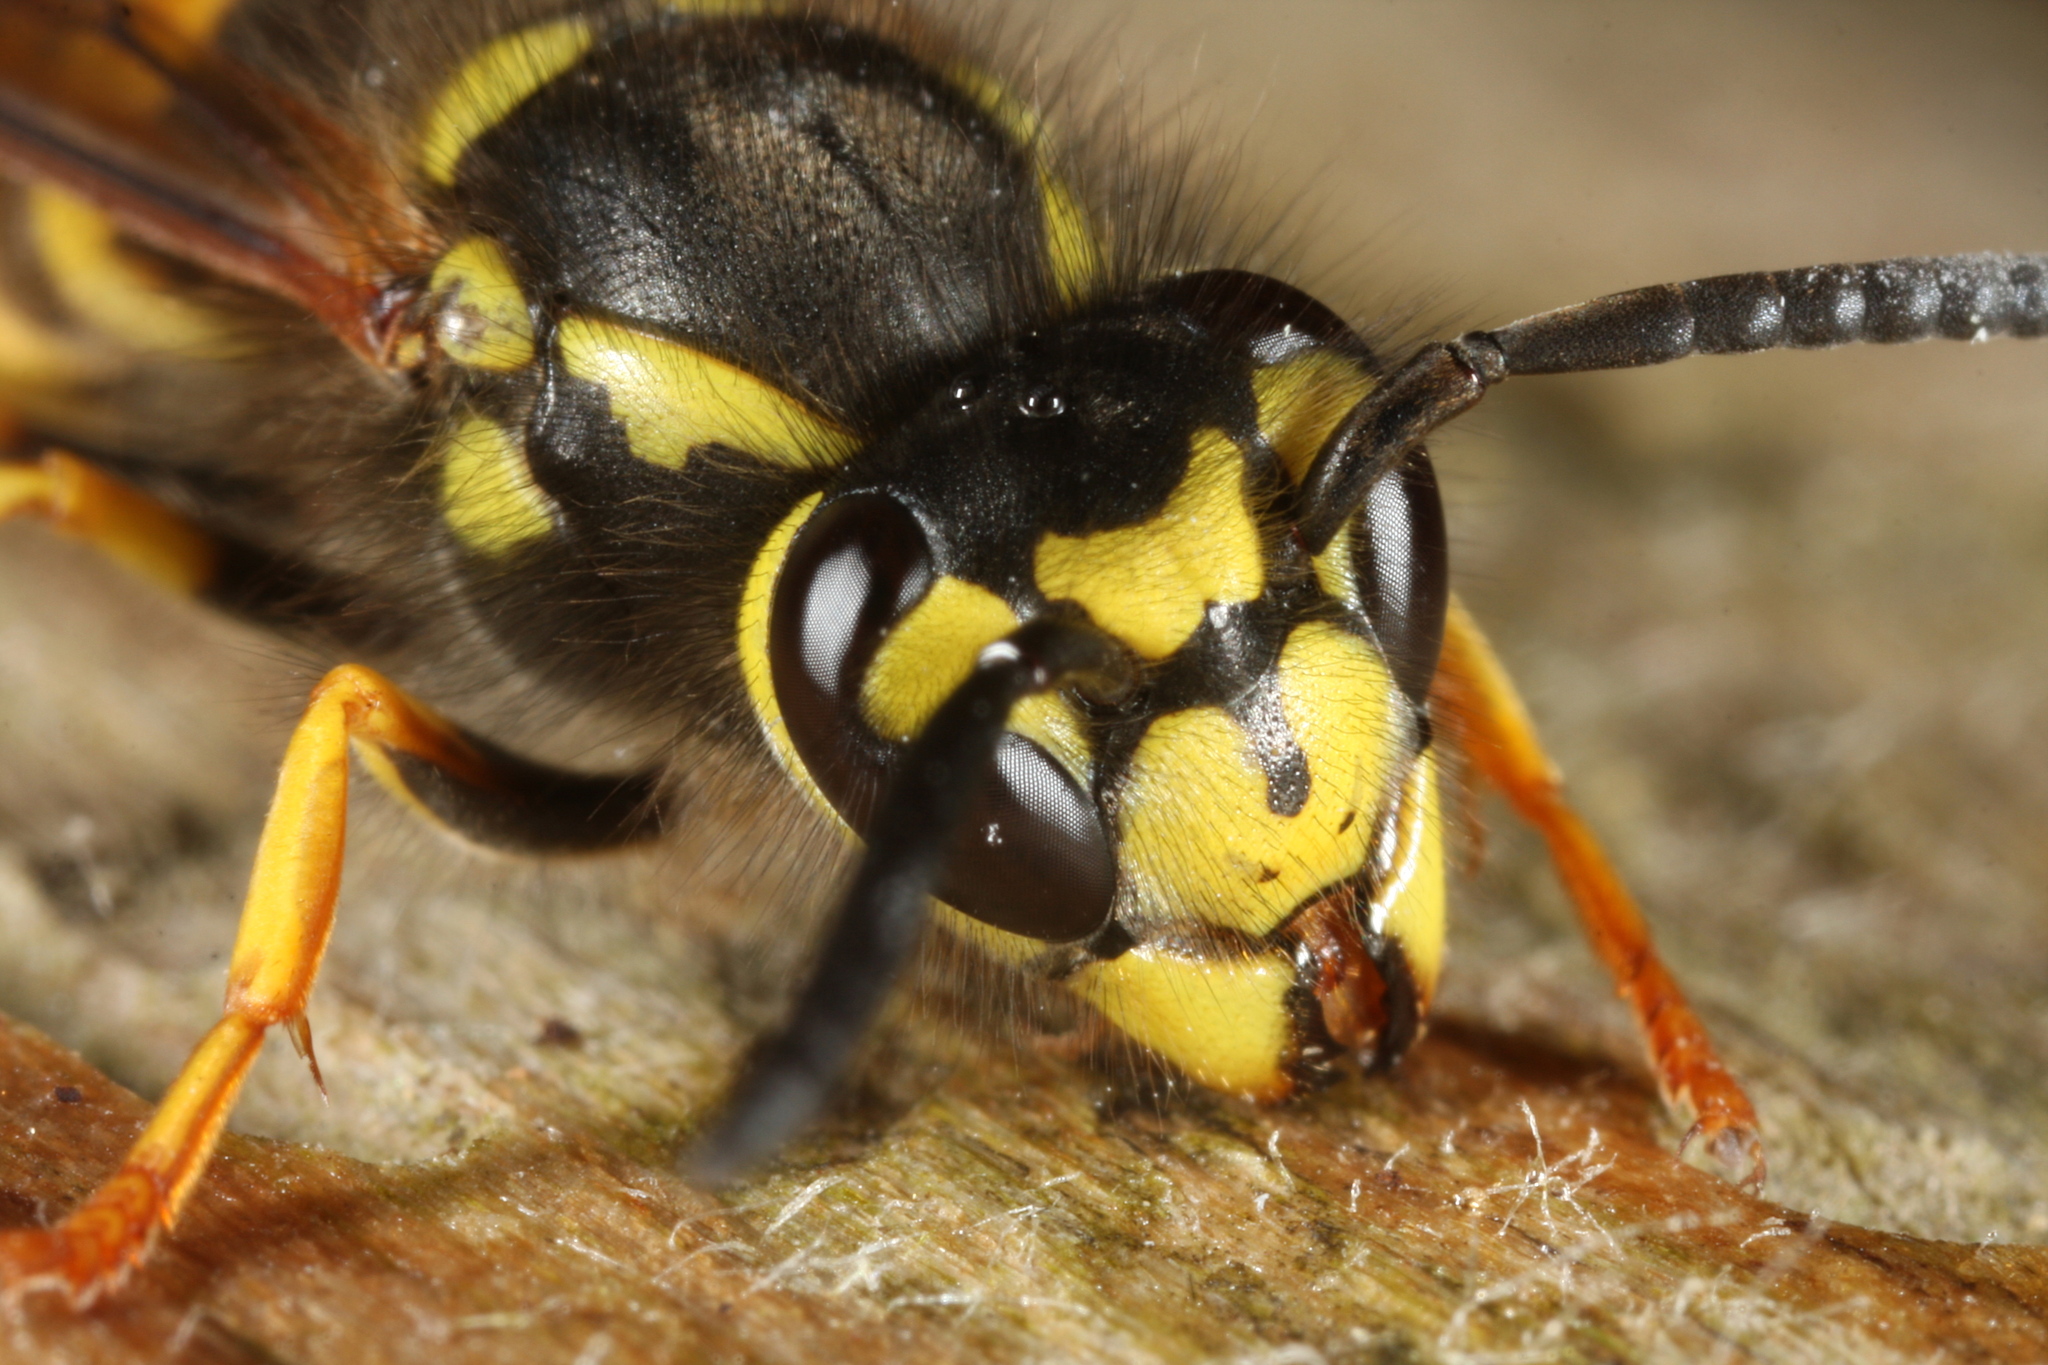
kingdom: Animalia
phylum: Arthropoda
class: Insecta
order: Hymenoptera
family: Vespidae
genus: Vespula
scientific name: Vespula germanica
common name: German wasp
